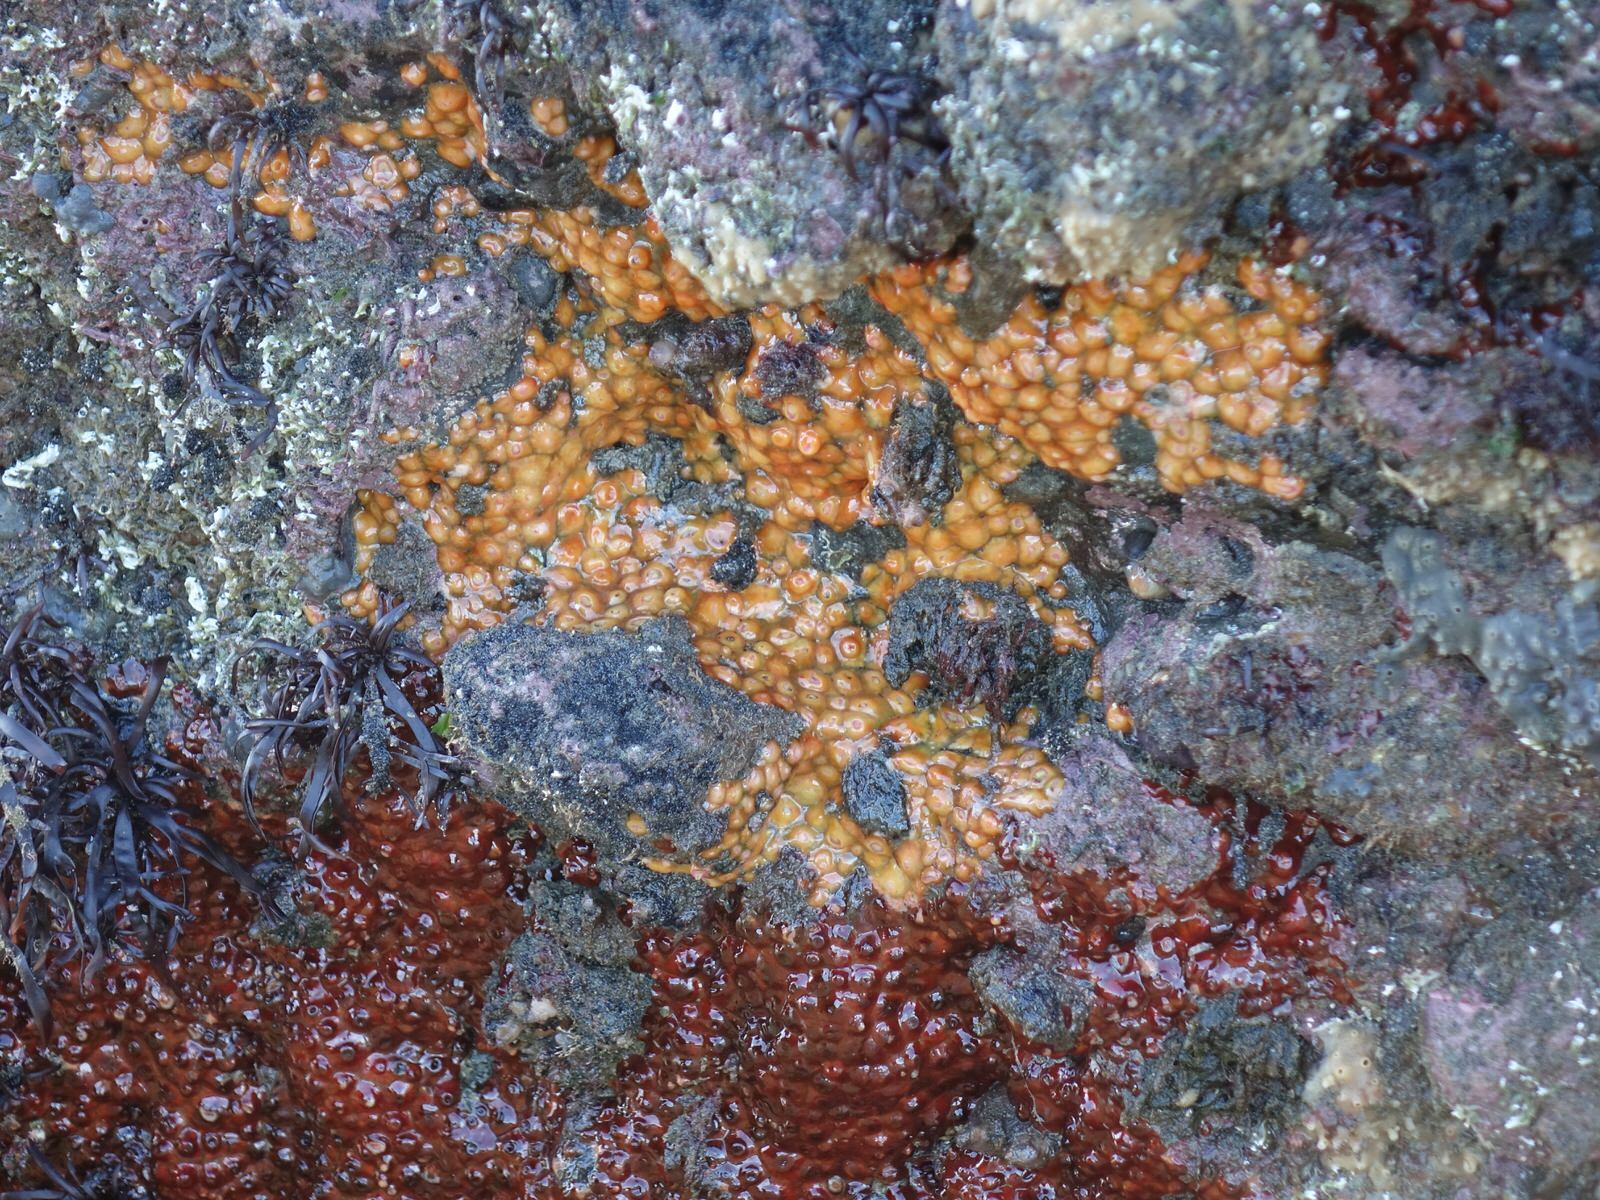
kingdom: Animalia
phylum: Cnidaria
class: Anthozoa
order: Corallimorpharia
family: Corallimorphidae
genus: Corynactis
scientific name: Corynactis australis
